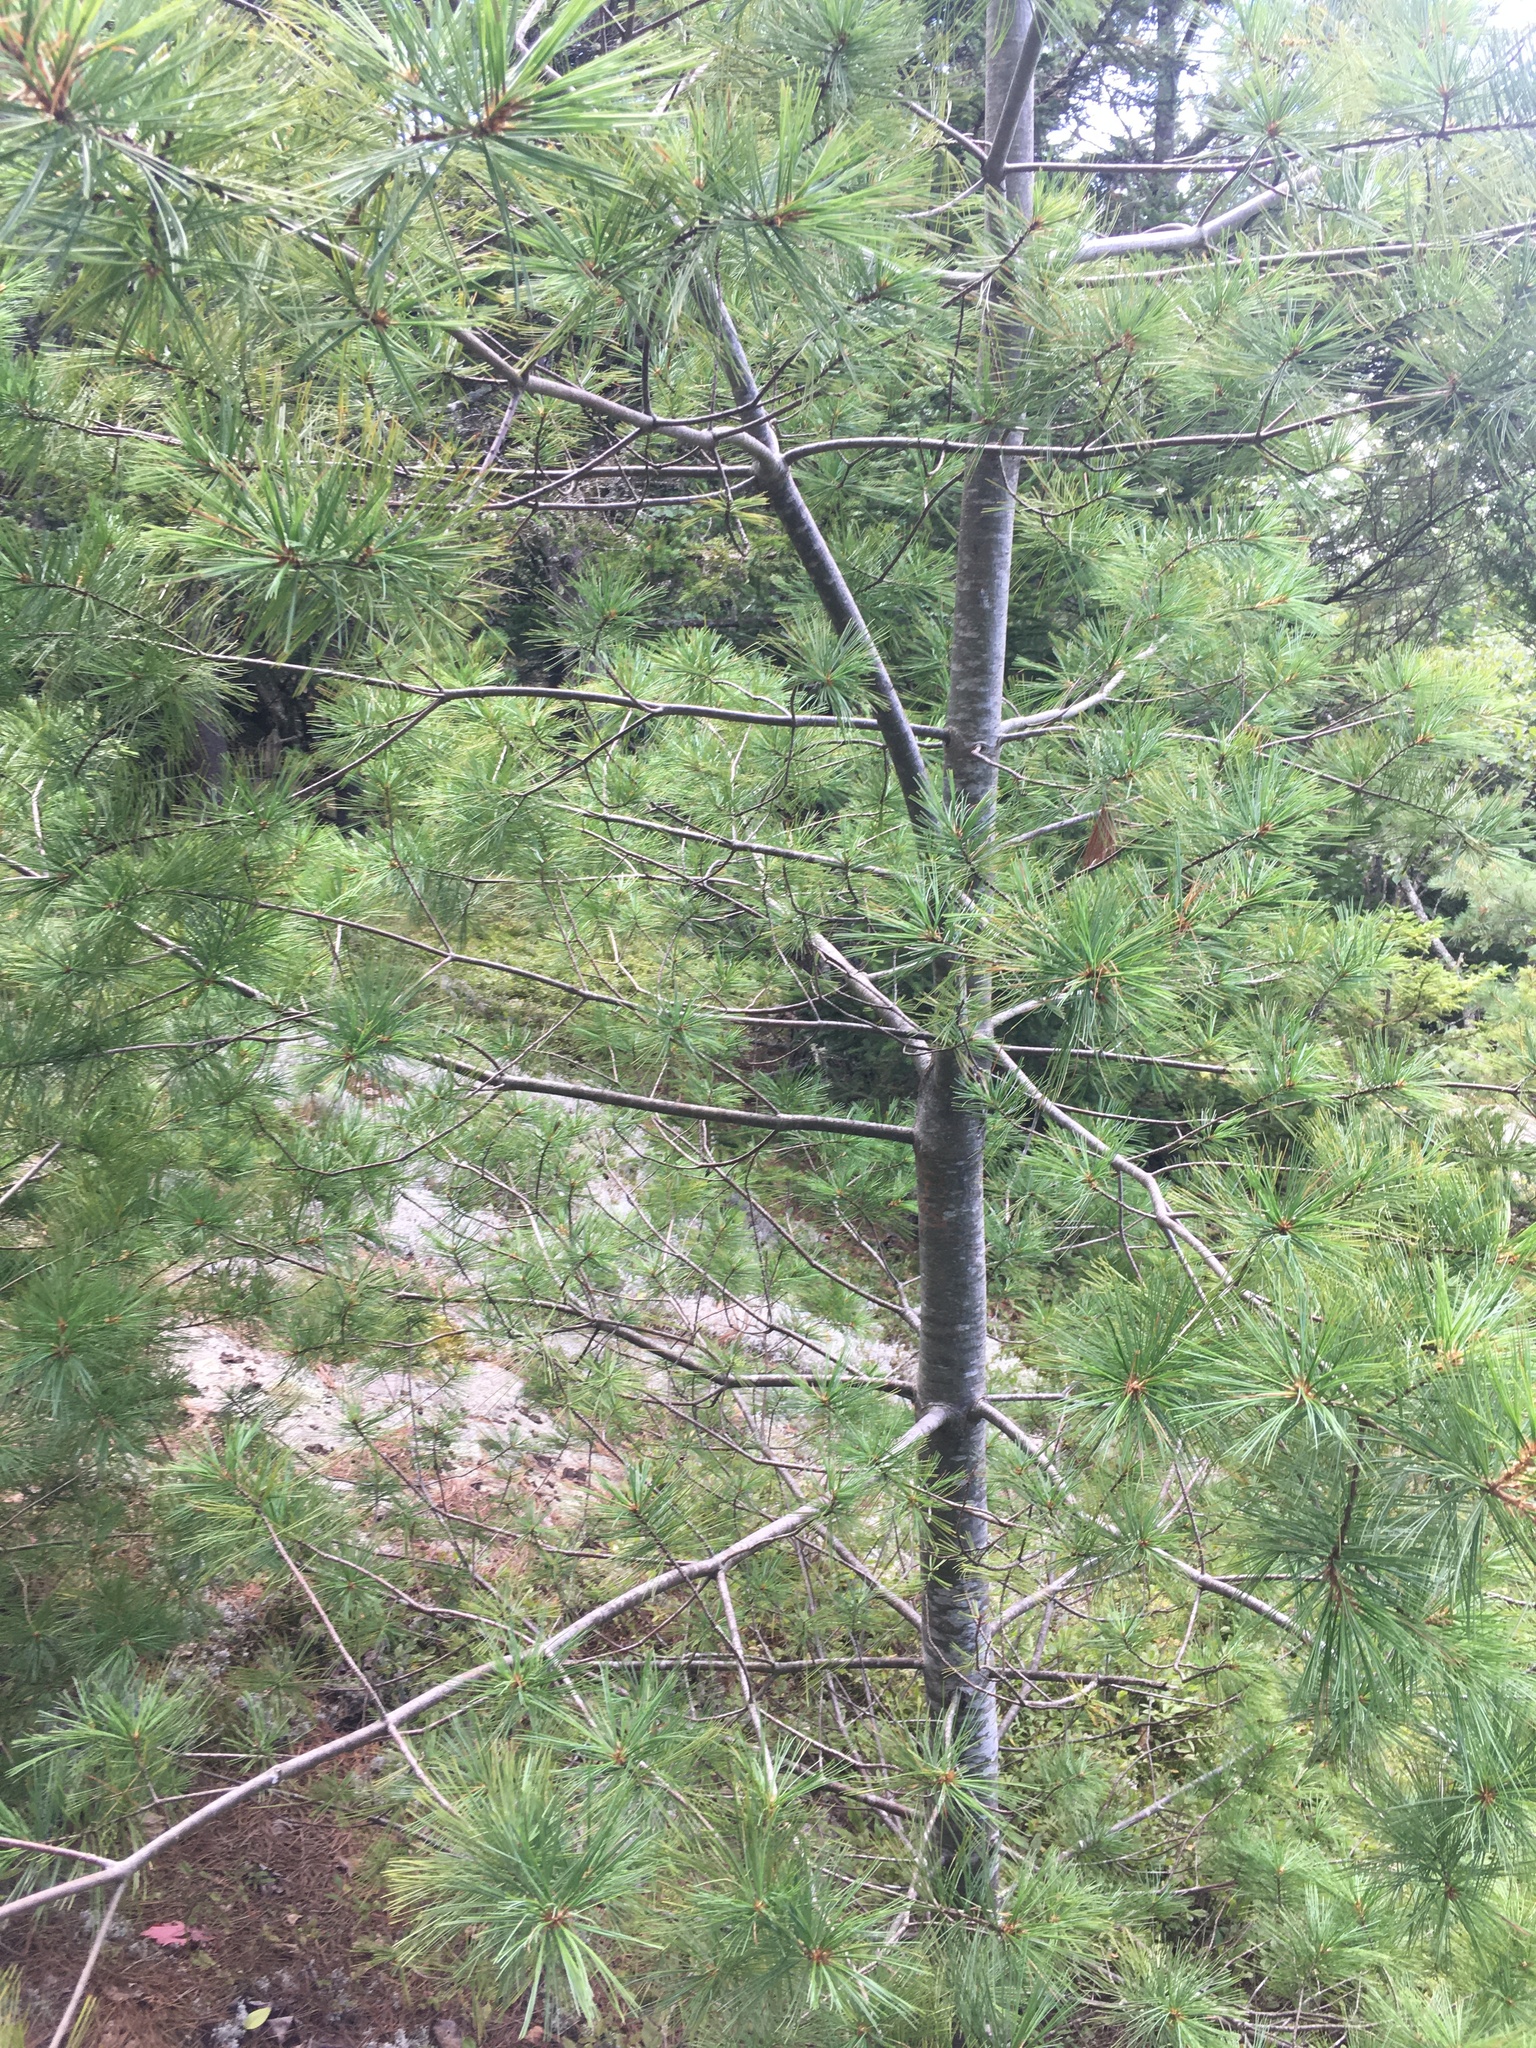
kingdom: Plantae
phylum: Tracheophyta
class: Pinopsida
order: Pinales
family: Pinaceae
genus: Pinus
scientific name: Pinus strobus
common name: Weymouth pine
